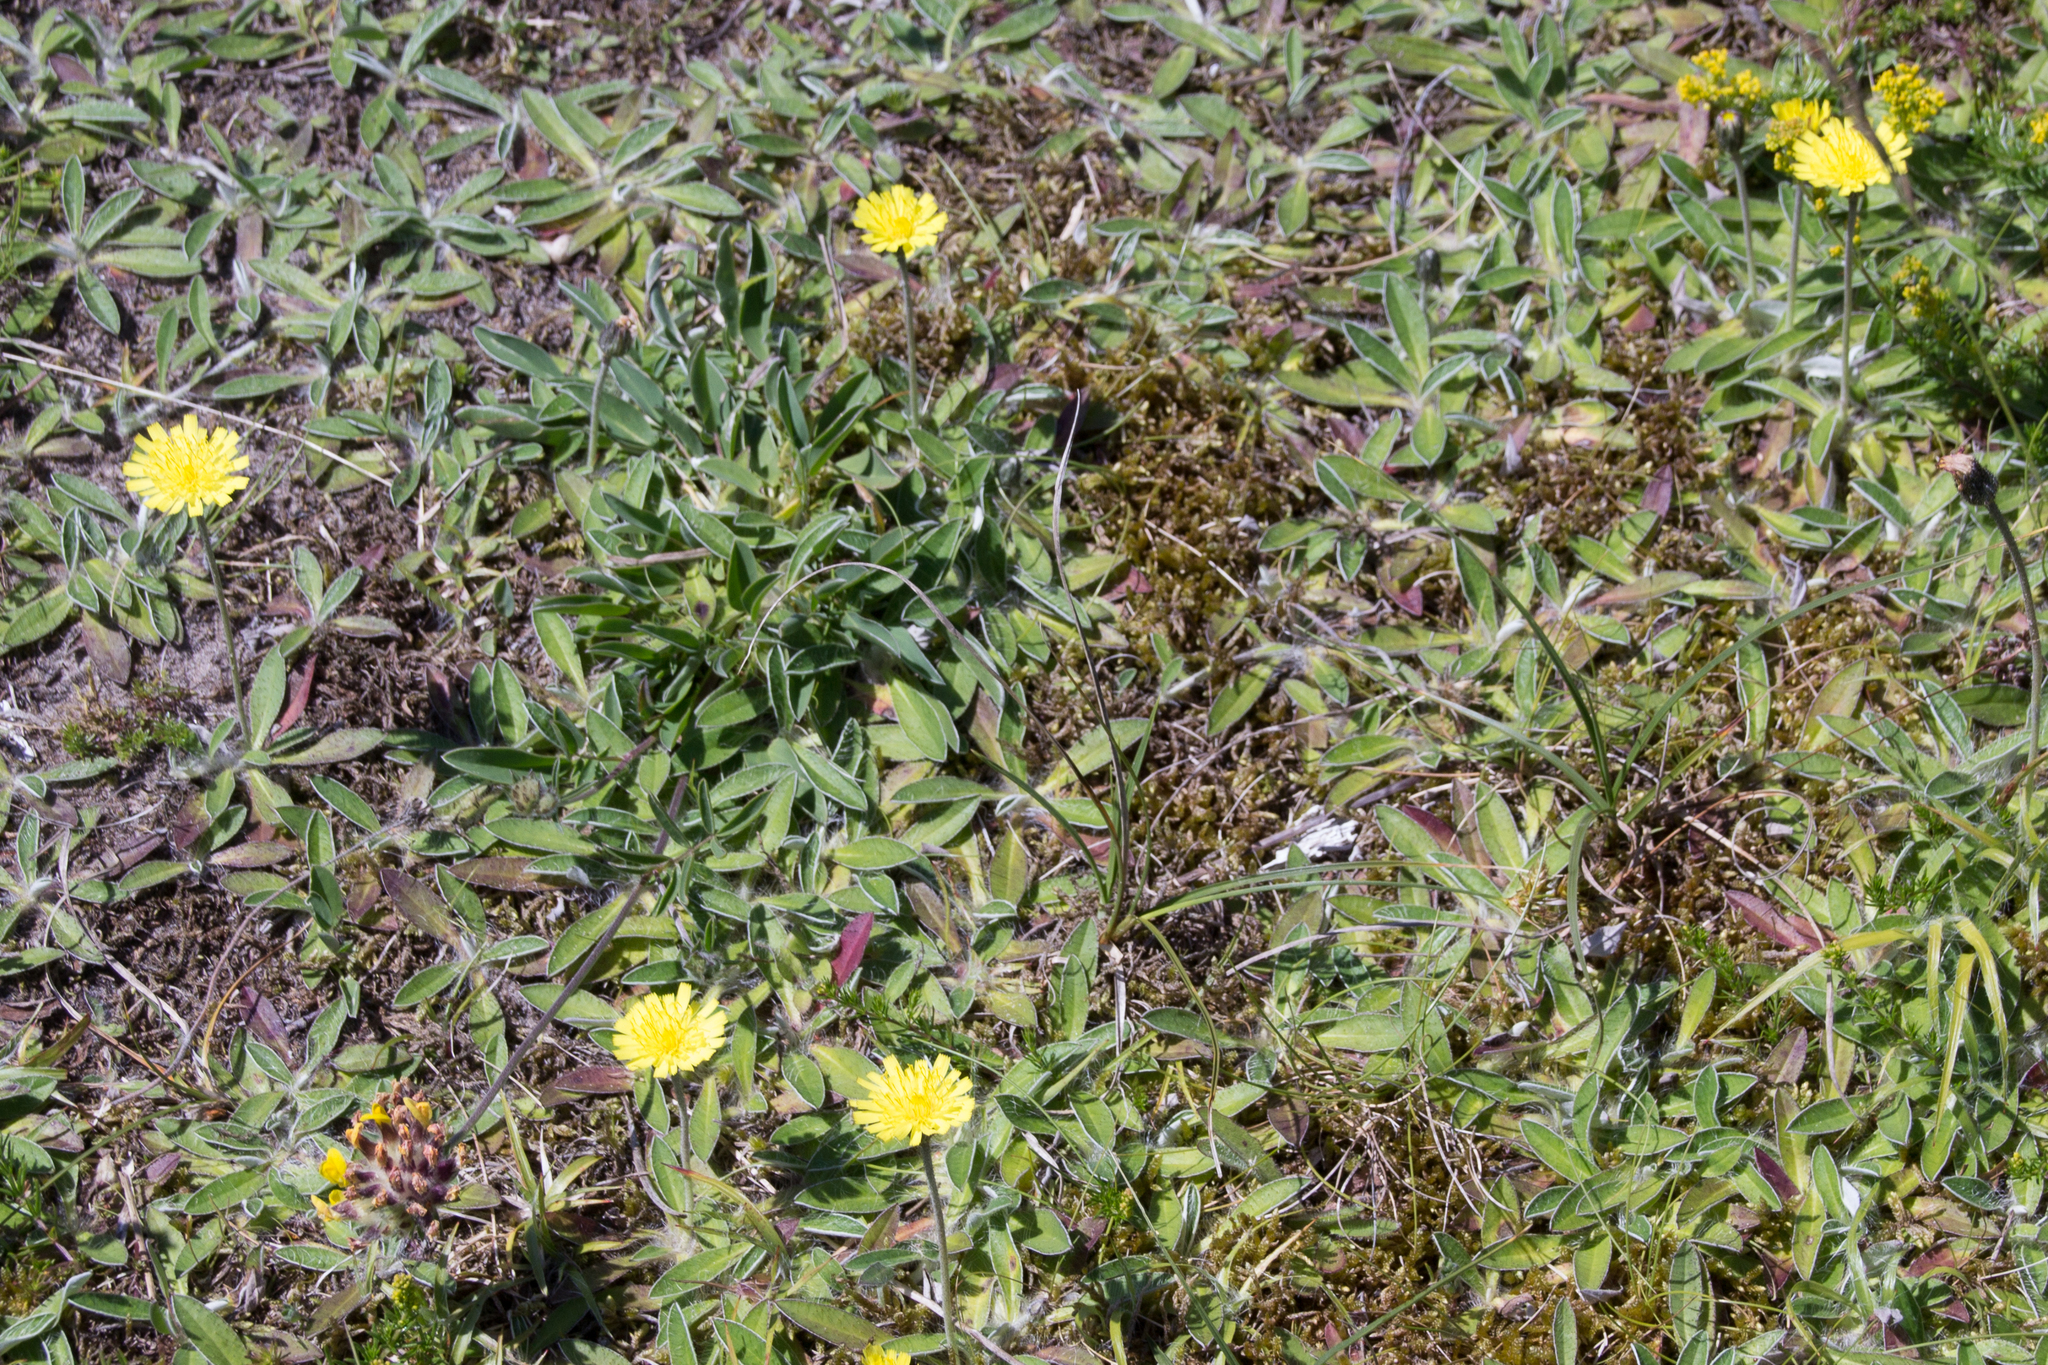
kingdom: Plantae
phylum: Tracheophyta
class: Magnoliopsida
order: Asterales
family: Asteraceae
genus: Pilosella
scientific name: Pilosella officinarum
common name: Mouse-ear hawkweed
